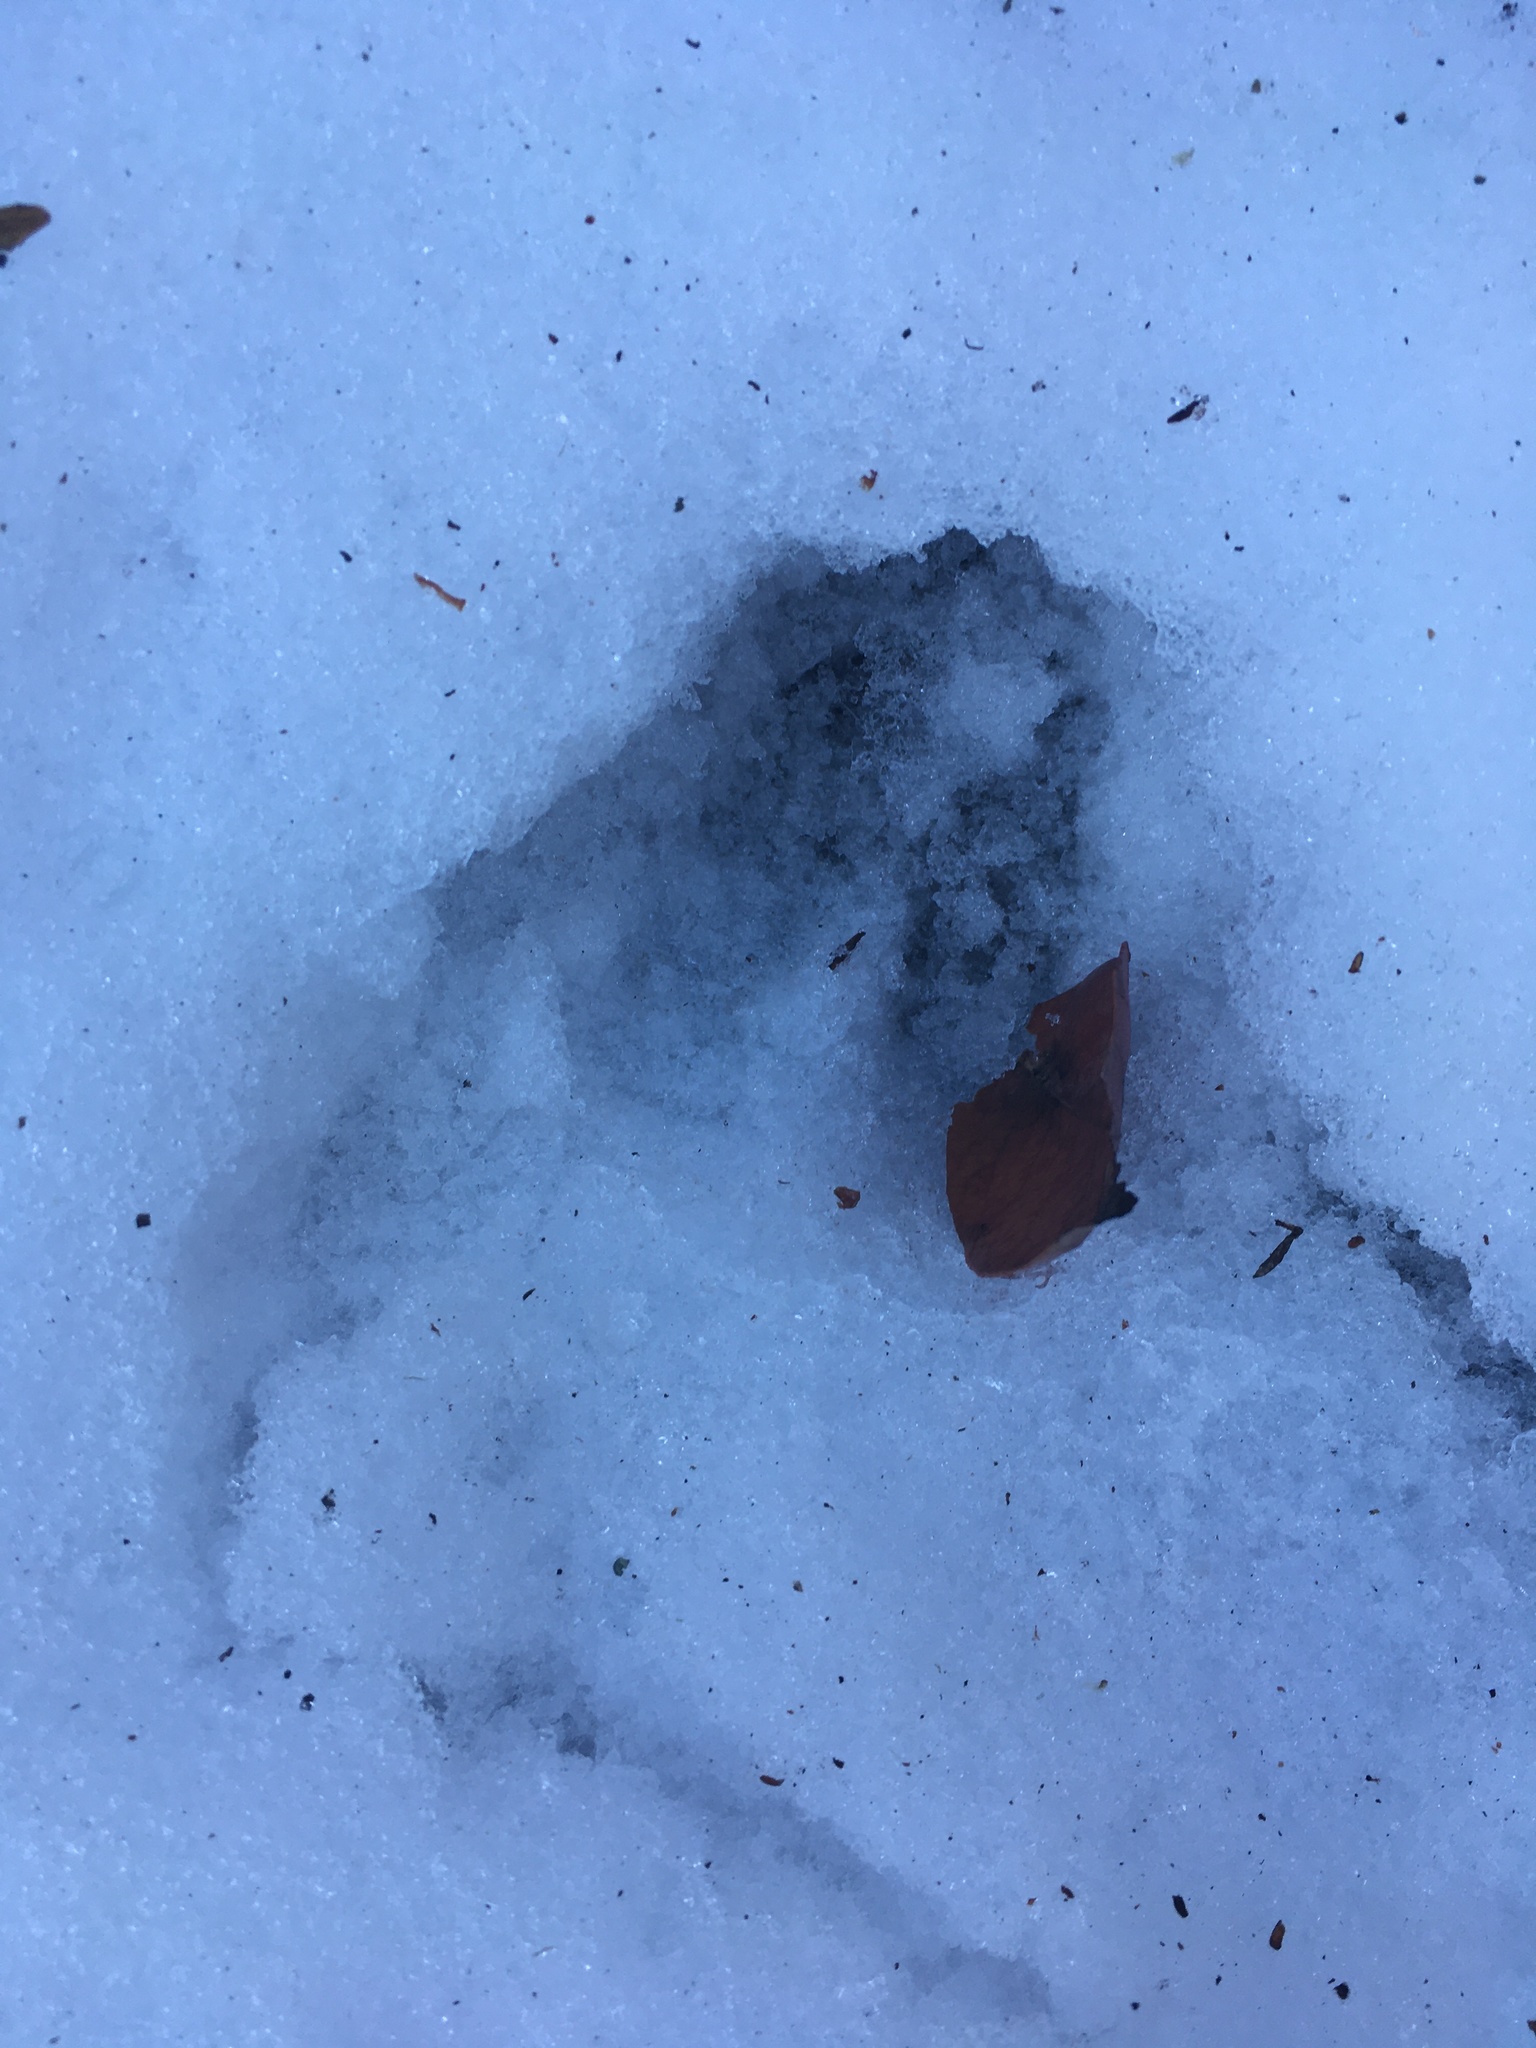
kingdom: Animalia
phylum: Chordata
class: Mammalia
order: Artiodactyla
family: Cervidae
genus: Odocoileus
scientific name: Odocoileus hemionus
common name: Mule deer
